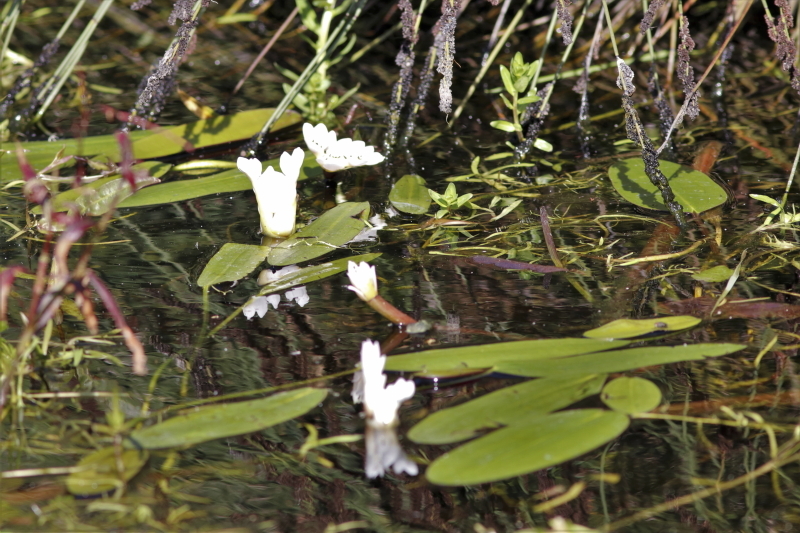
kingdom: Plantae
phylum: Tracheophyta
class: Liliopsida
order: Alismatales
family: Aponogetonaceae
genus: Aponogeton
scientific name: Aponogeton distachyos
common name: Cape-pondweed
